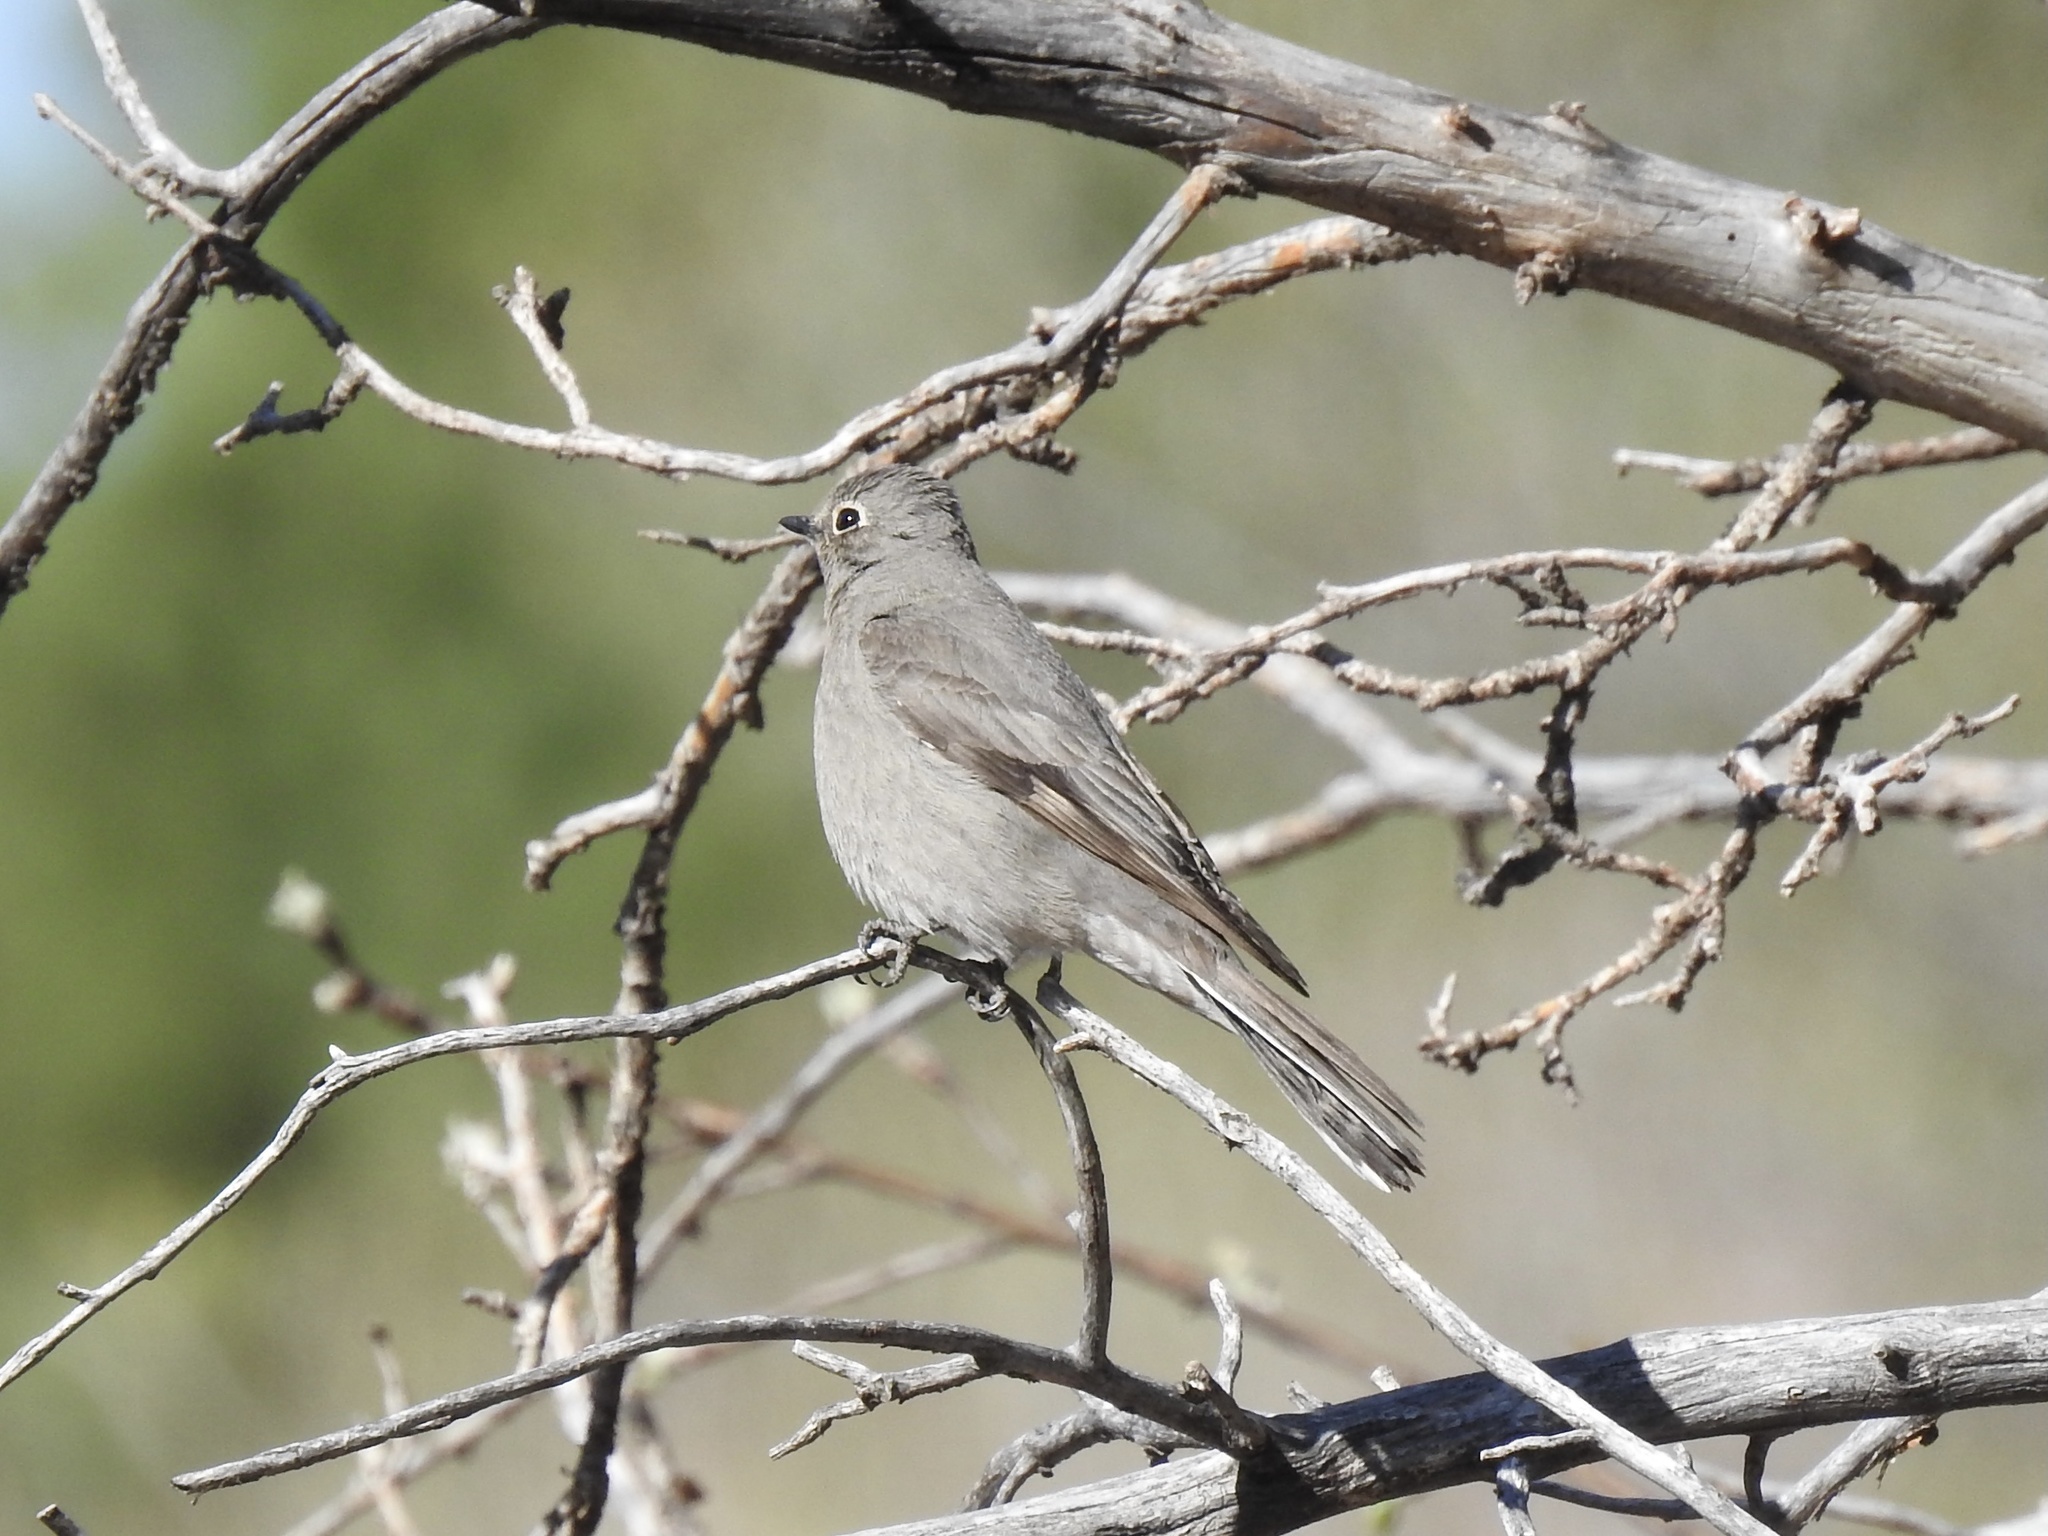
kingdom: Animalia
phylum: Chordata
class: Aves
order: Passeriformes
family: Turdidae
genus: Myadestes
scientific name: Myadestes townsendi
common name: Townsend's solitaire
